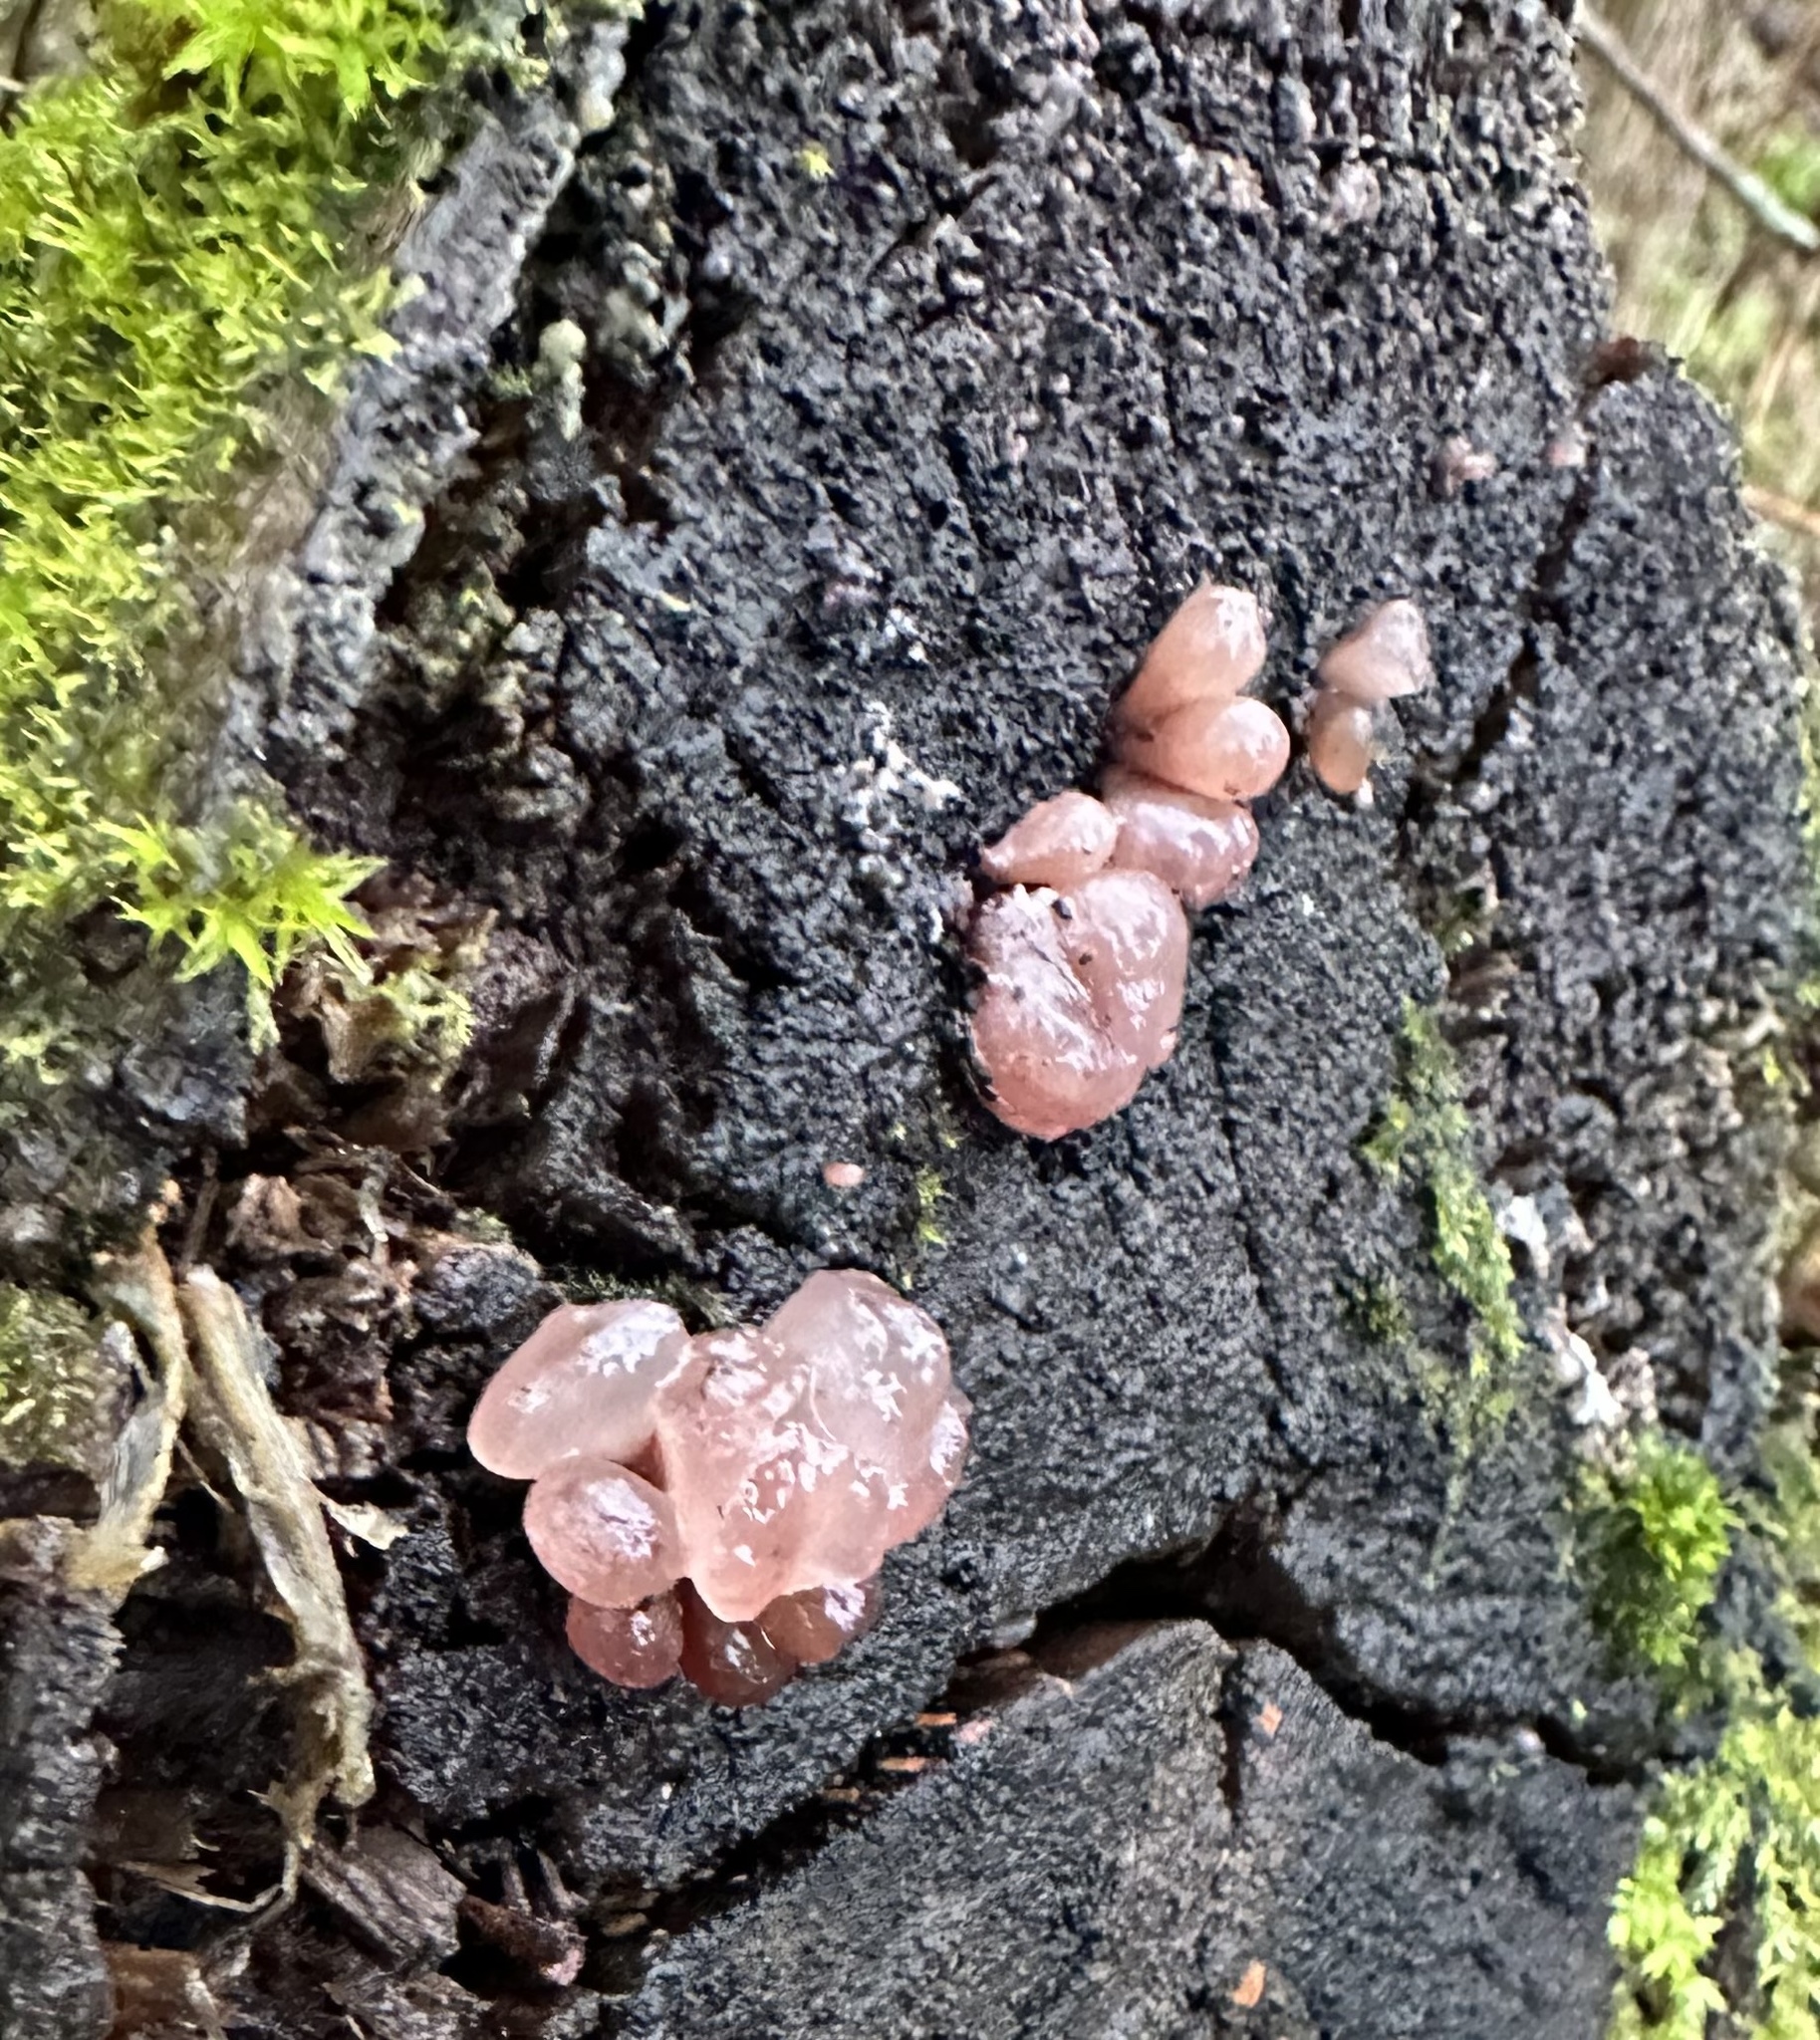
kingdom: Fungi
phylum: Ascomycota
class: Leotiomycetes
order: Helotiales
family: Gelatinodiscaceae
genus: Ascocoryne
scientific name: Ascocoryne sarcoides
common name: Purple jellydisc
